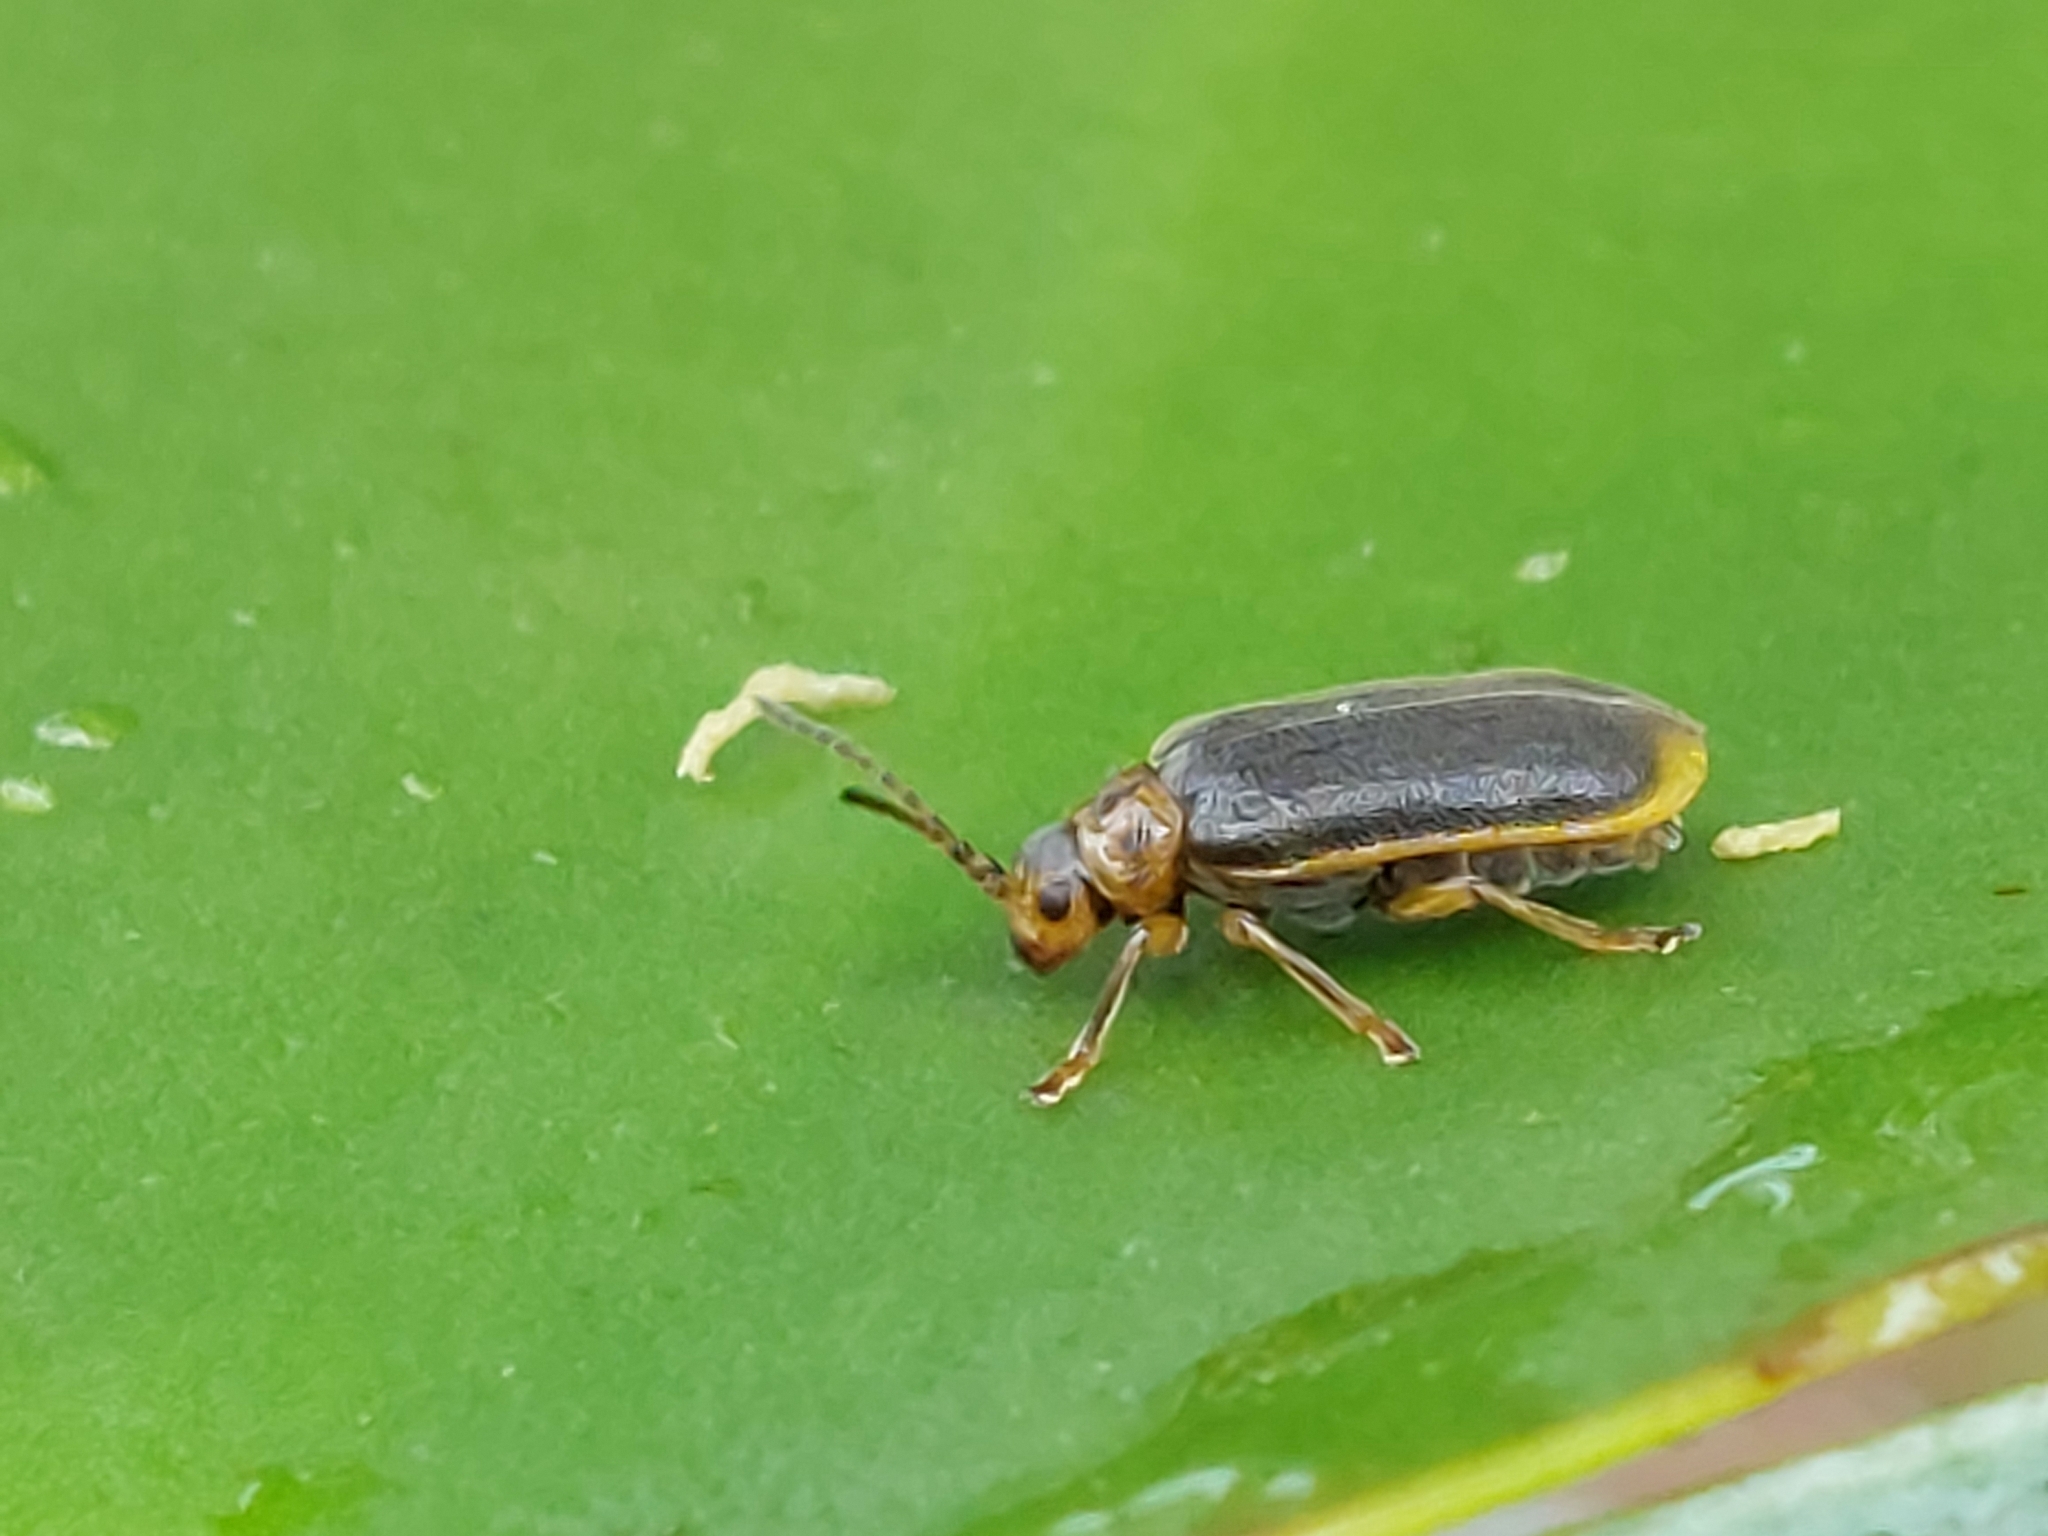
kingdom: Animalia
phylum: Arthropoda
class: Insecta
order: Coleoptera
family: Chrysomelidae
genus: Galerucella
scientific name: Galerucella nymphaeae
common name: Leaf beetle
